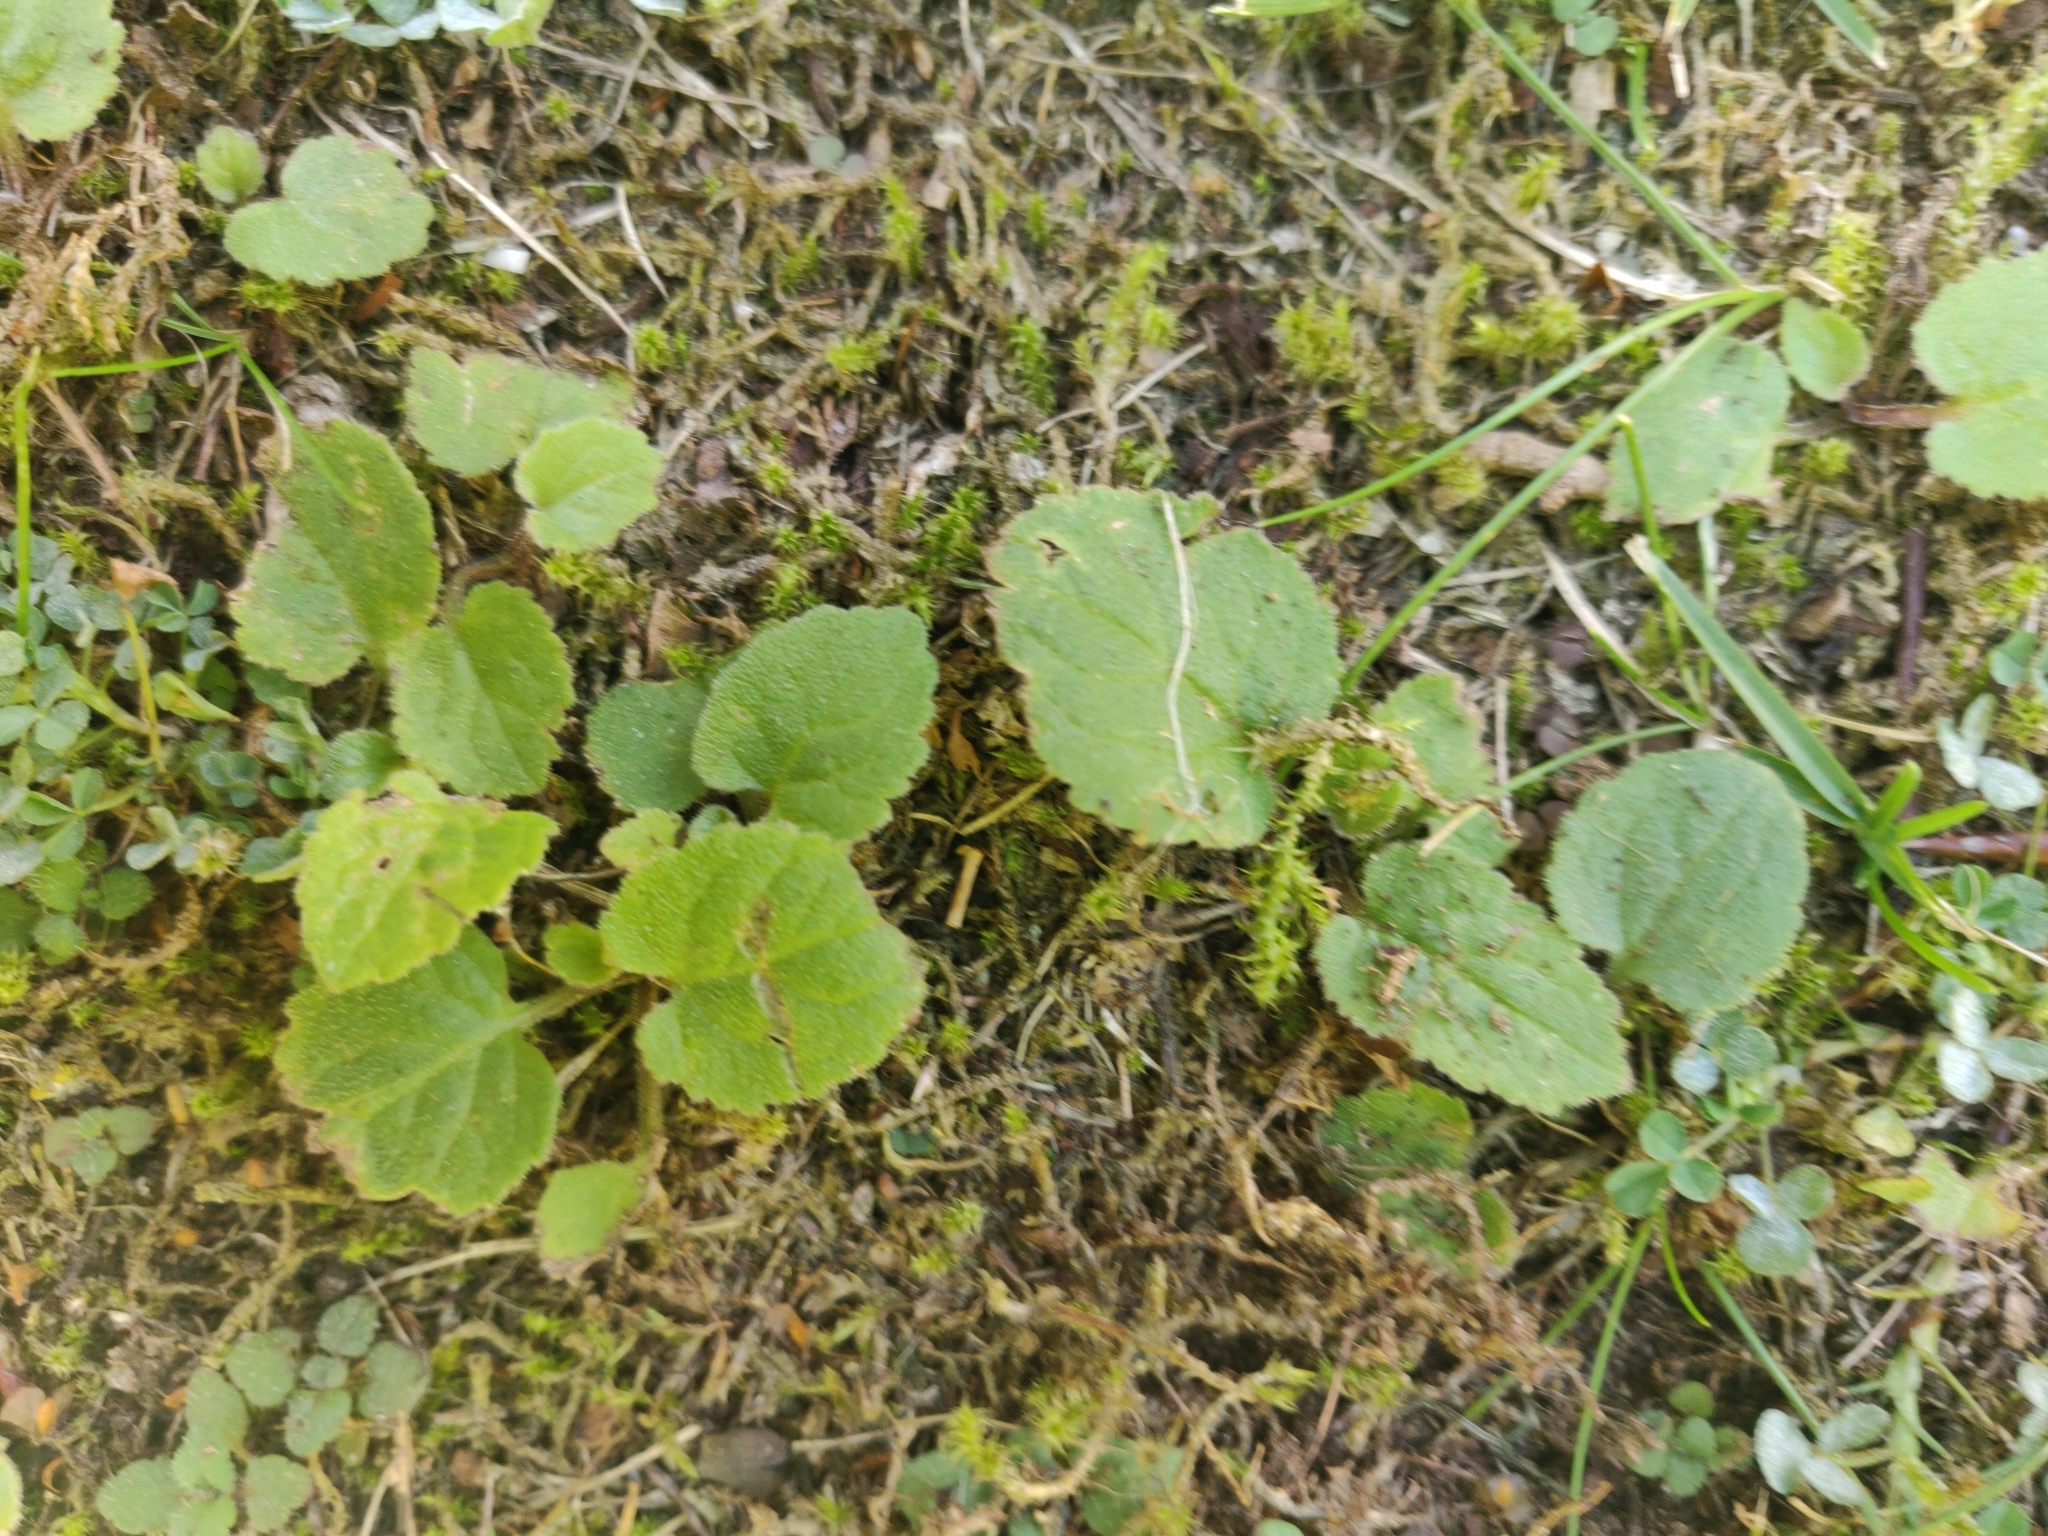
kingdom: Plantae
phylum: Tracheophyta
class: Magnoliopsida
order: Asterales
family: Campanulaceae
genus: Campanula
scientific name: Campanula rapunculoides
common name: Creeping bellflower
